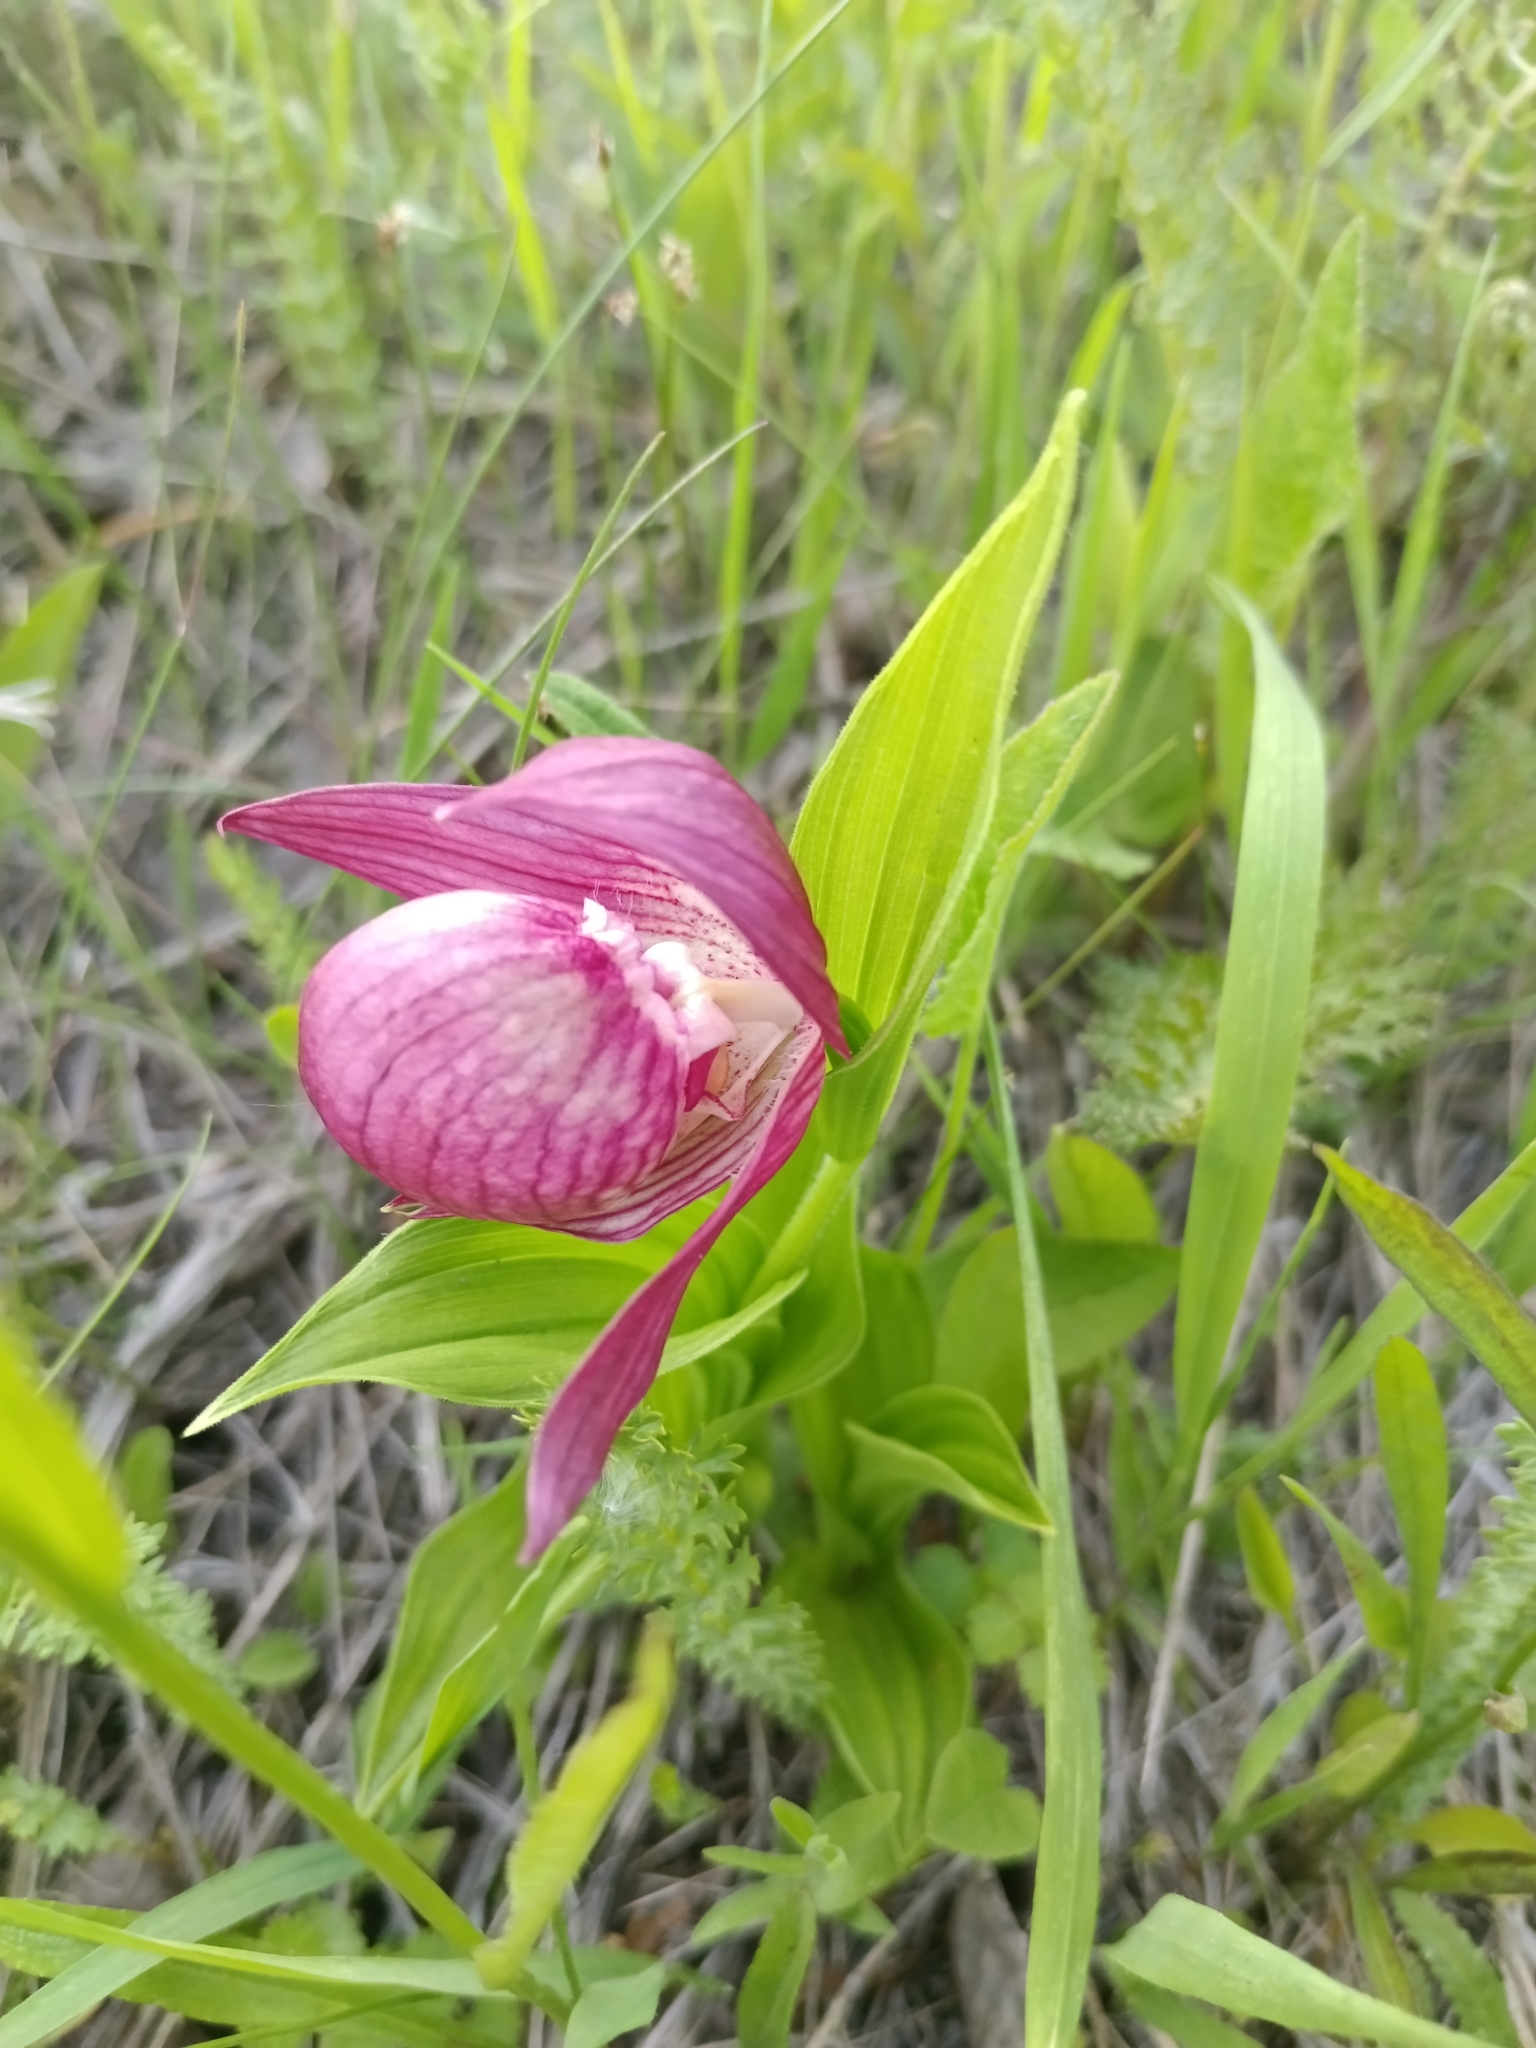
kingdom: Plantae
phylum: Tracheophyta
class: Liliopsida
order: Asparagales
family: Orchidaceae
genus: Cypripedium
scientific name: Cypripedium macranthos
